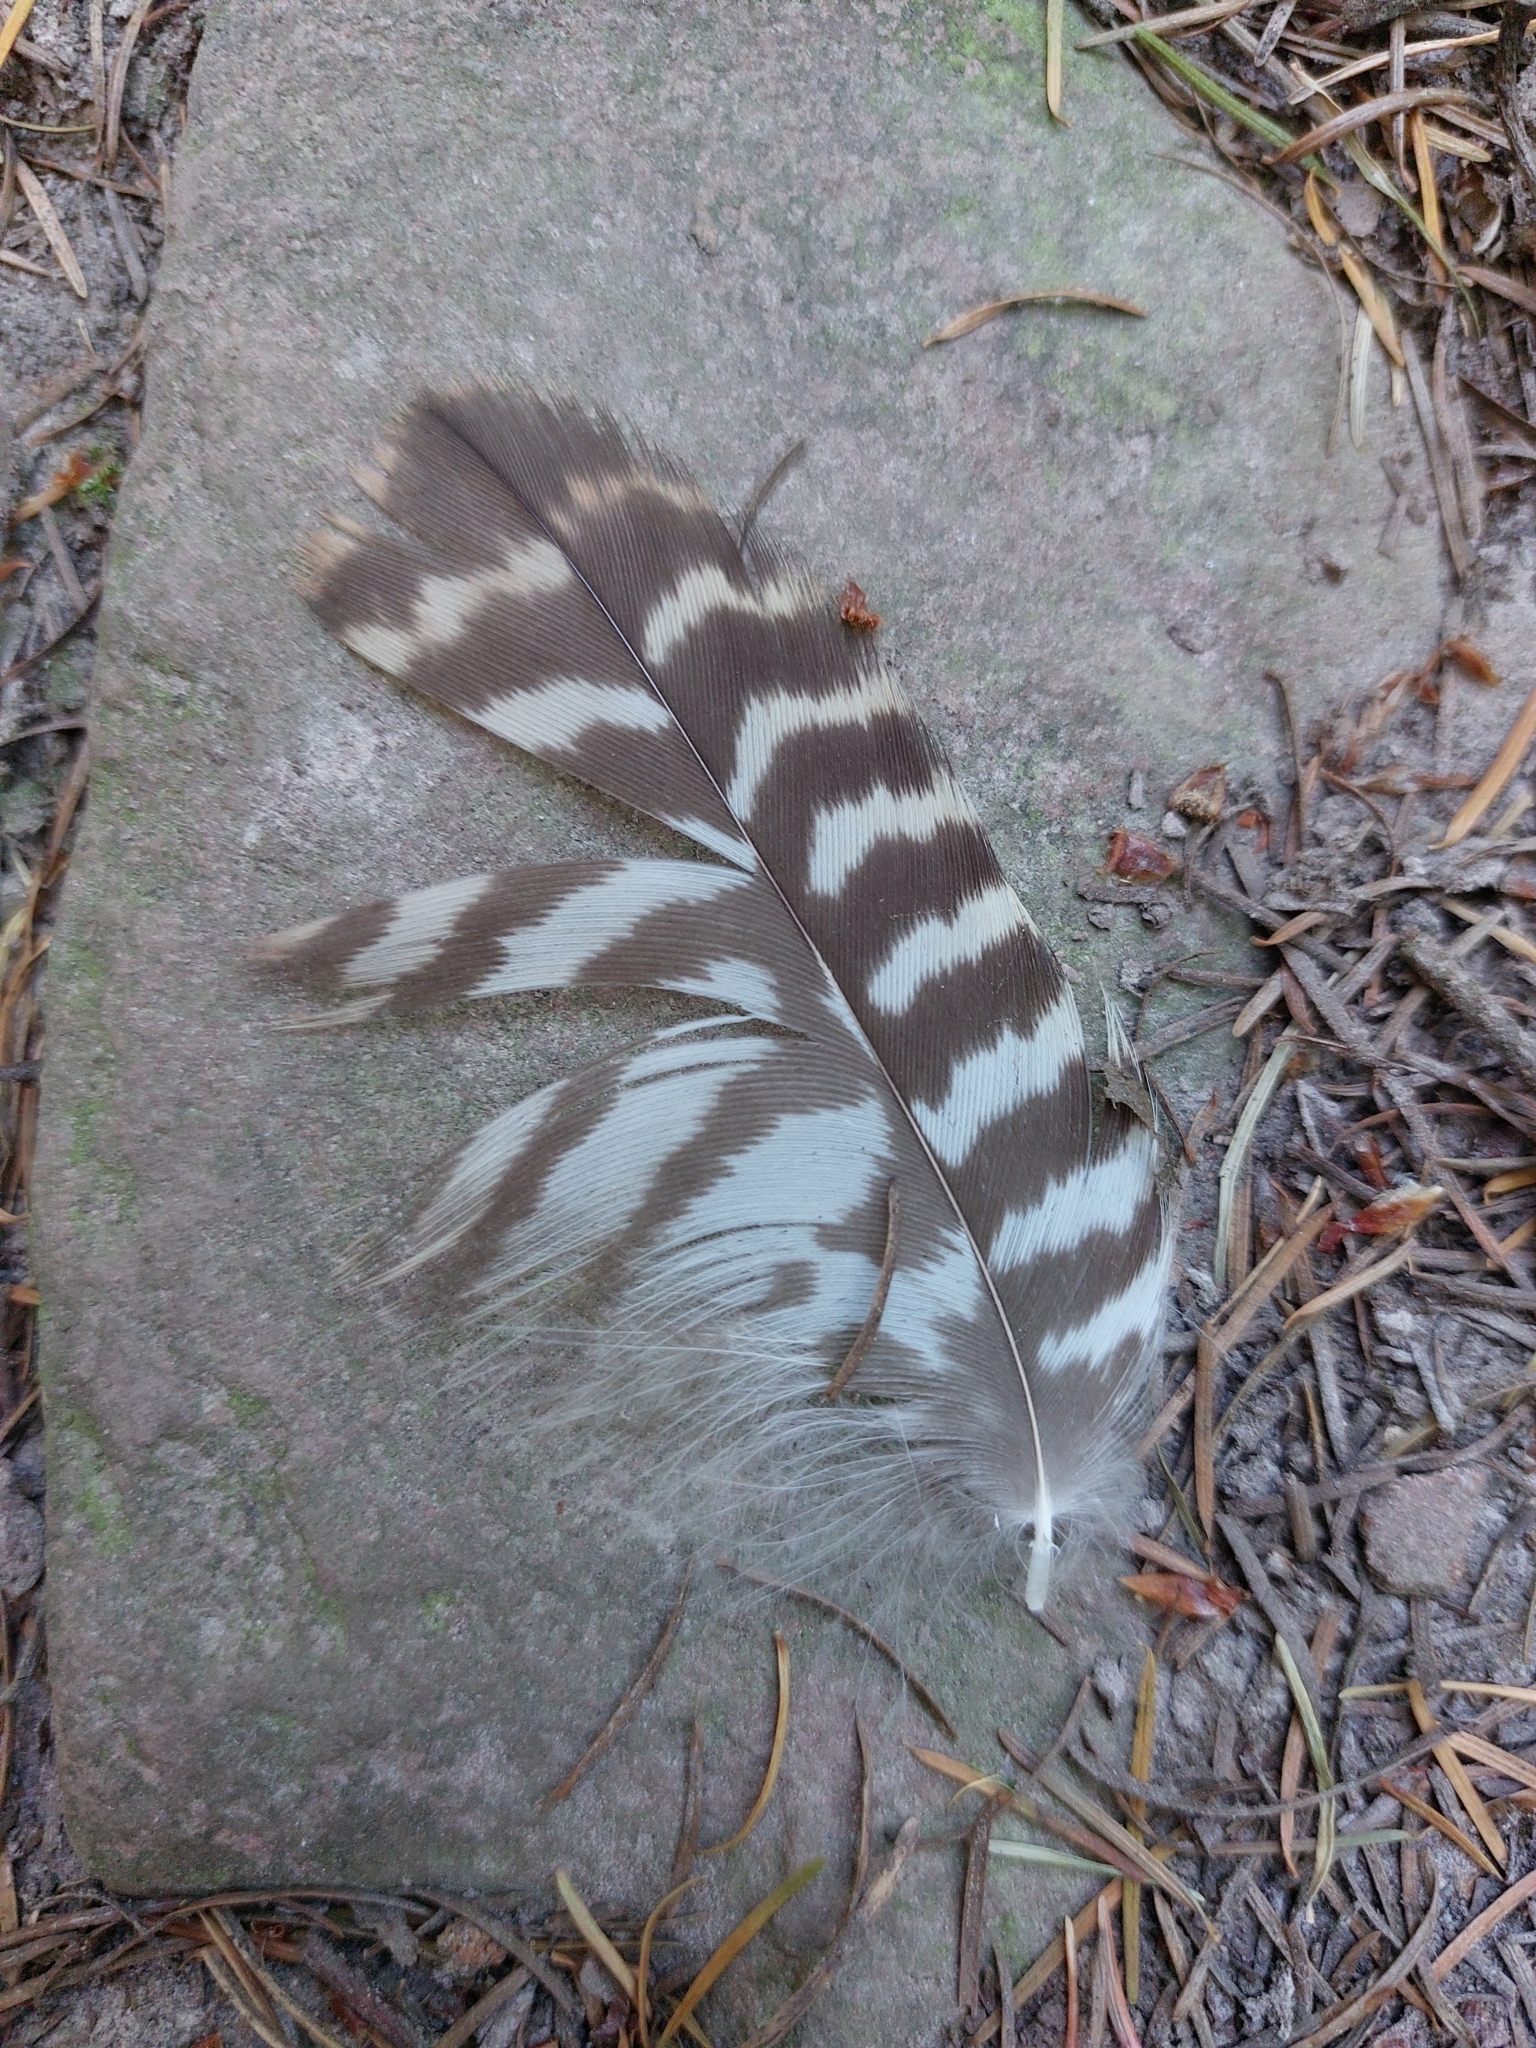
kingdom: Animalia
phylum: Chordata
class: Aves
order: Accipitriformes
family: Accipitridae
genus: Buteo
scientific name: Buteo buteo
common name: Common buzzard
